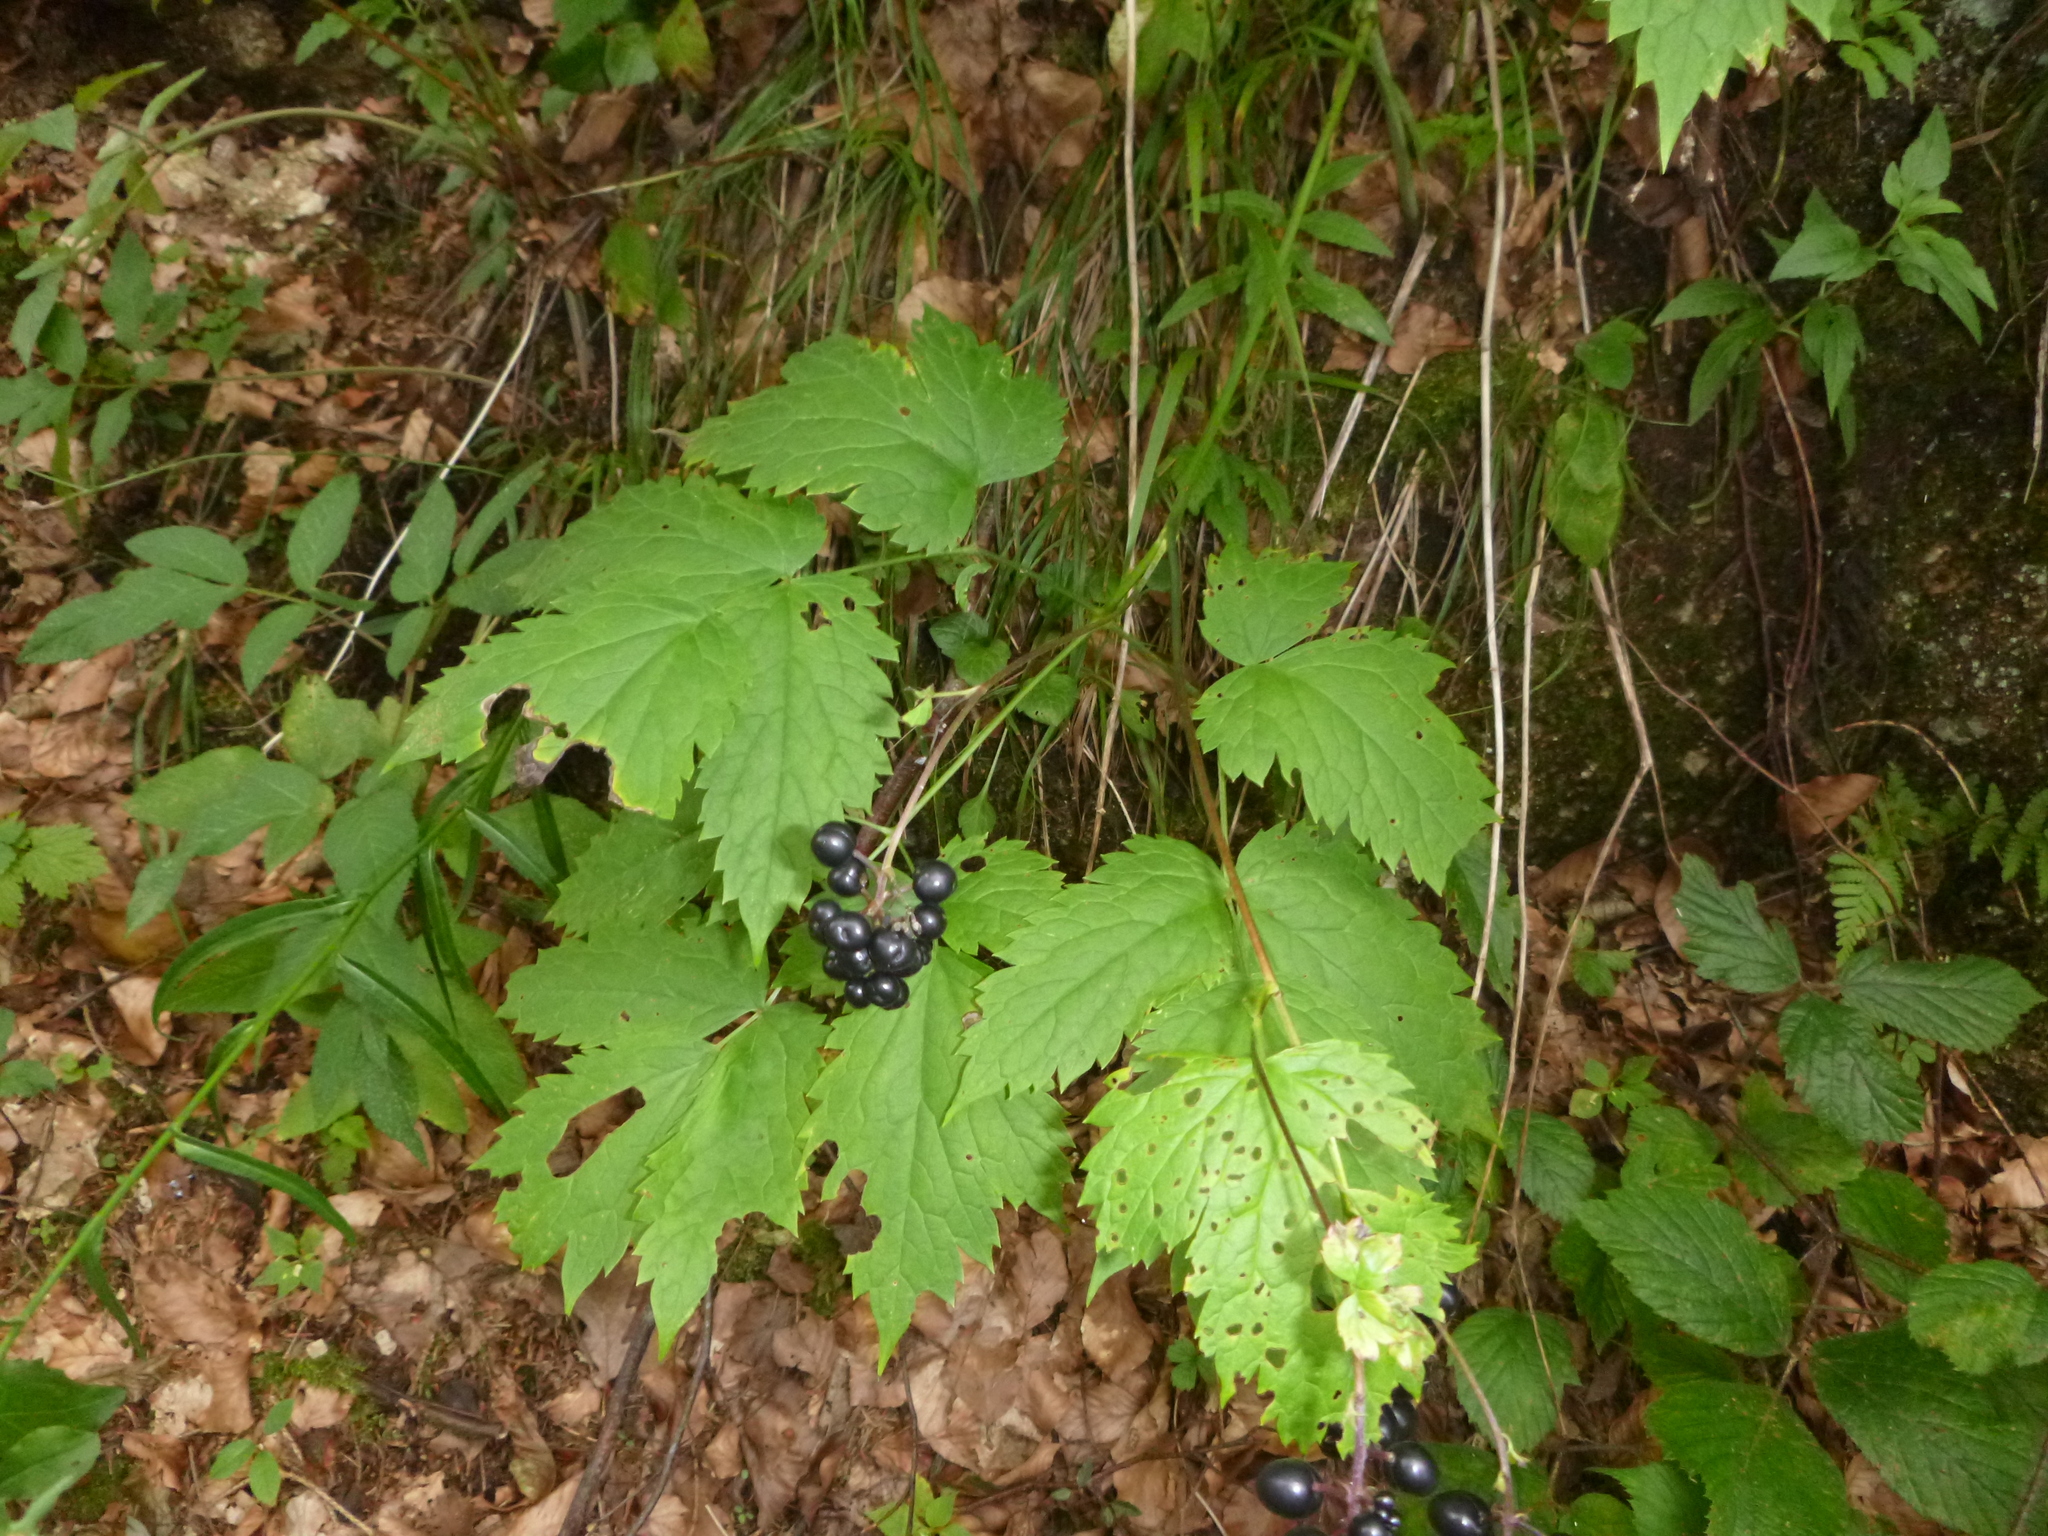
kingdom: Plantae
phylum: Tracheophyta
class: Magnoliopsida
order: Ranunculales
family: Ranunculaceae
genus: Actaea
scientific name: Actaea spicata
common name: Baneberry
